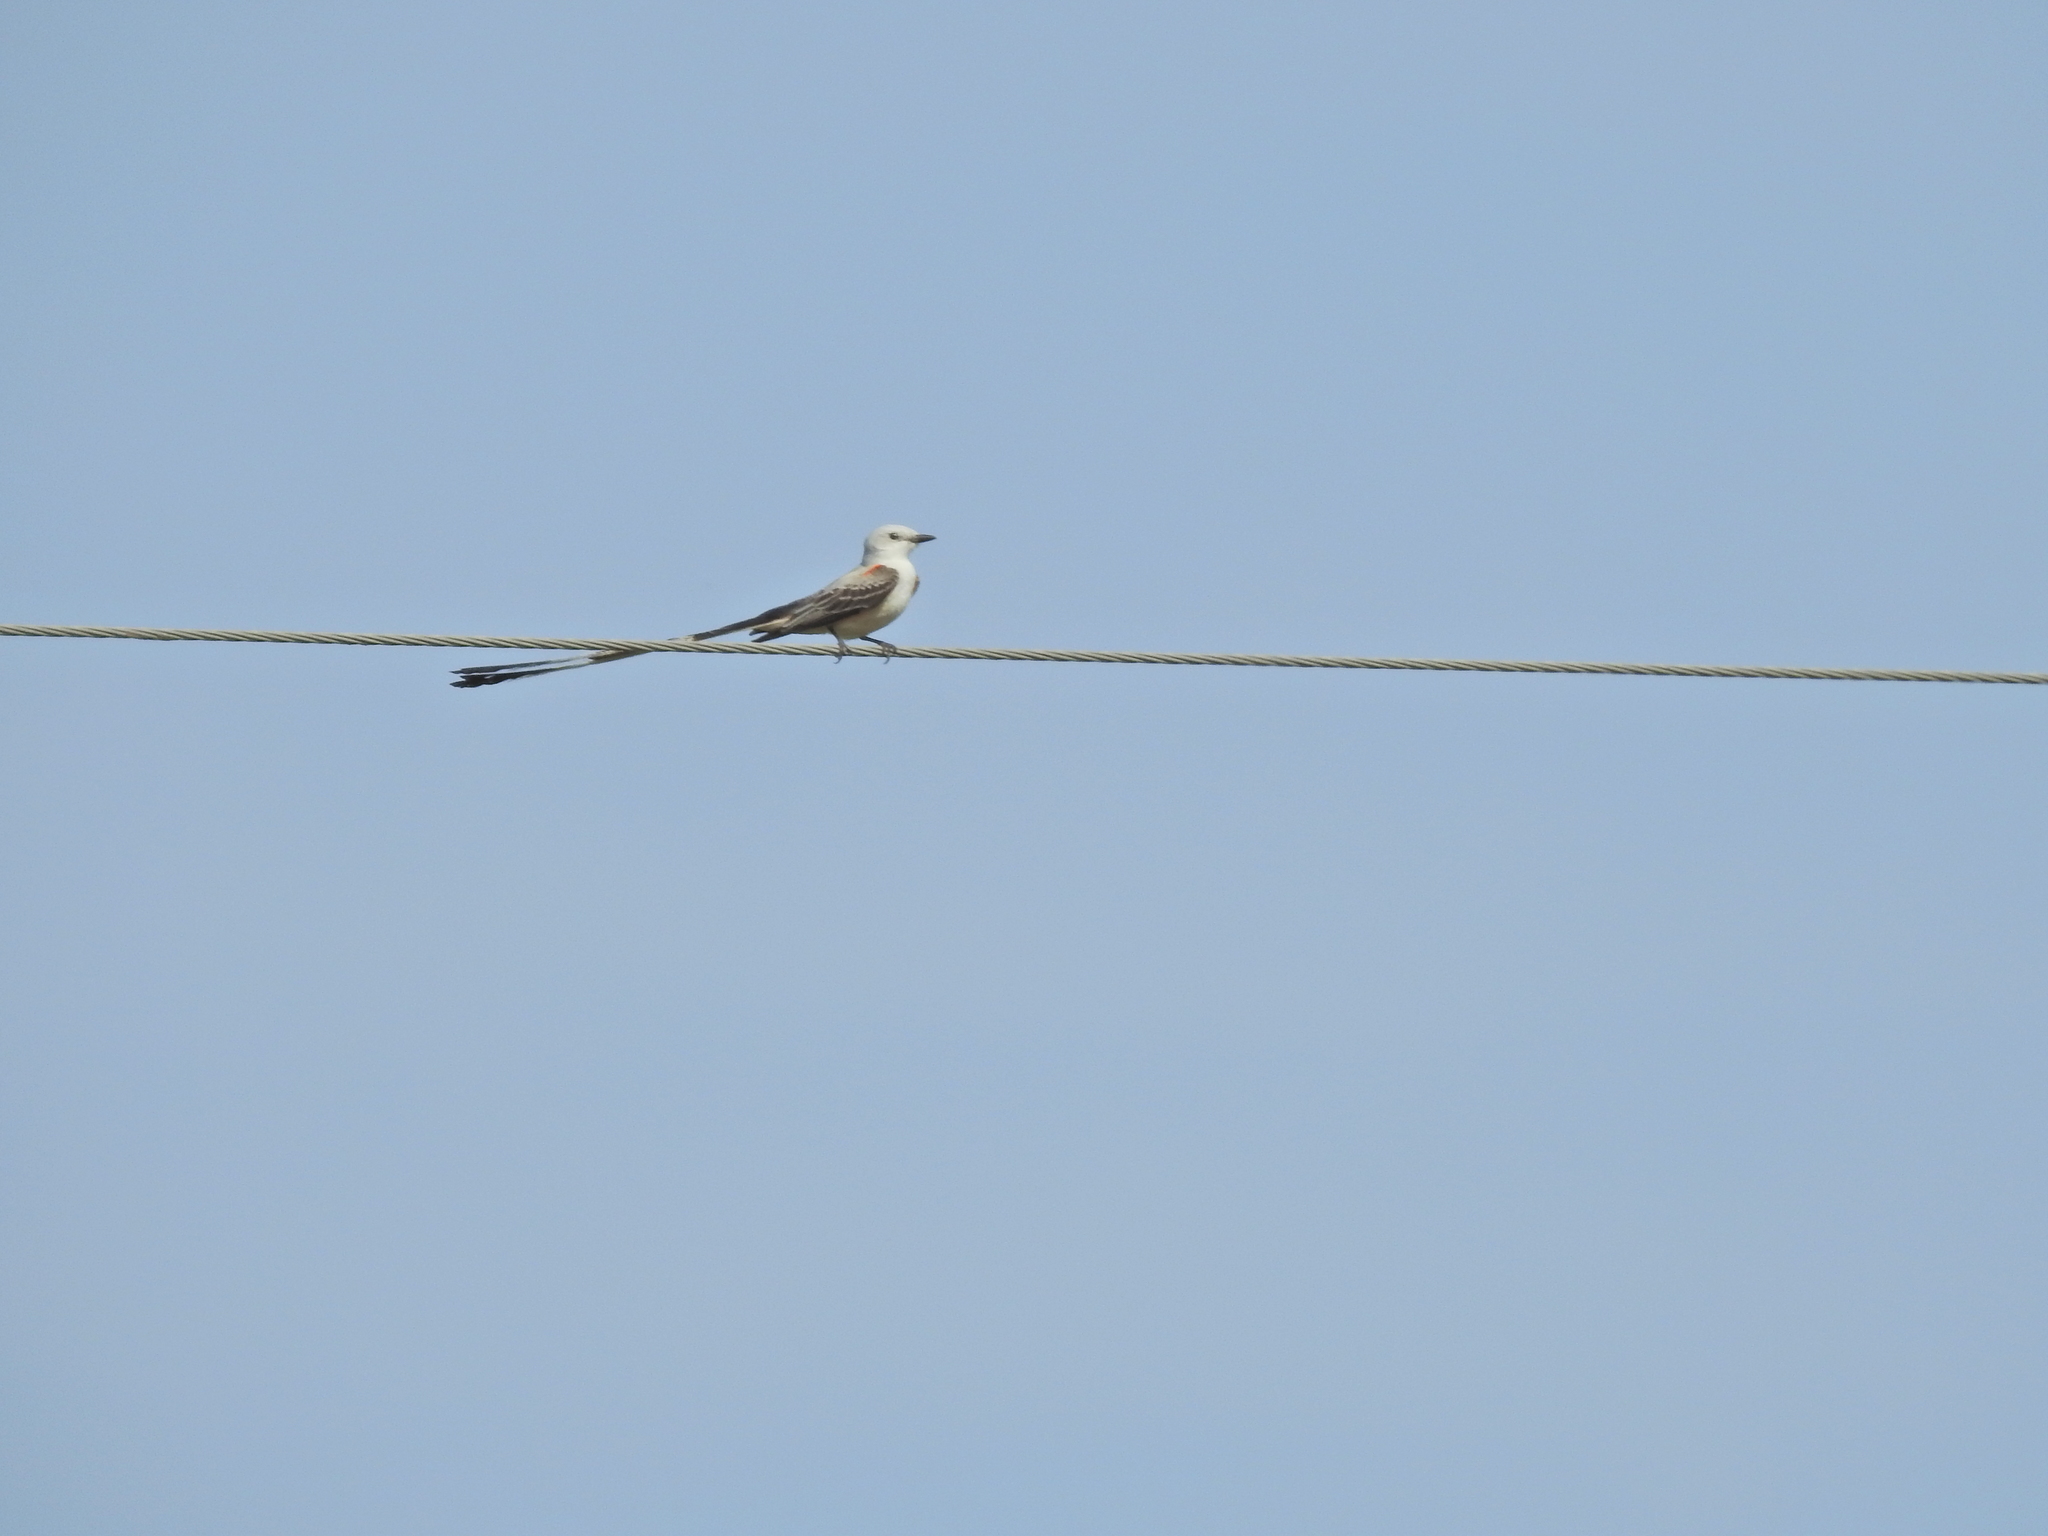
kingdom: Animalia
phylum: Chordata
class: Aves
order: Passeriformes
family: Tyrannidae
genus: Tyrannus
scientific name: Tyrannus forficatus
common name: Scissor-tailed flycatcher
